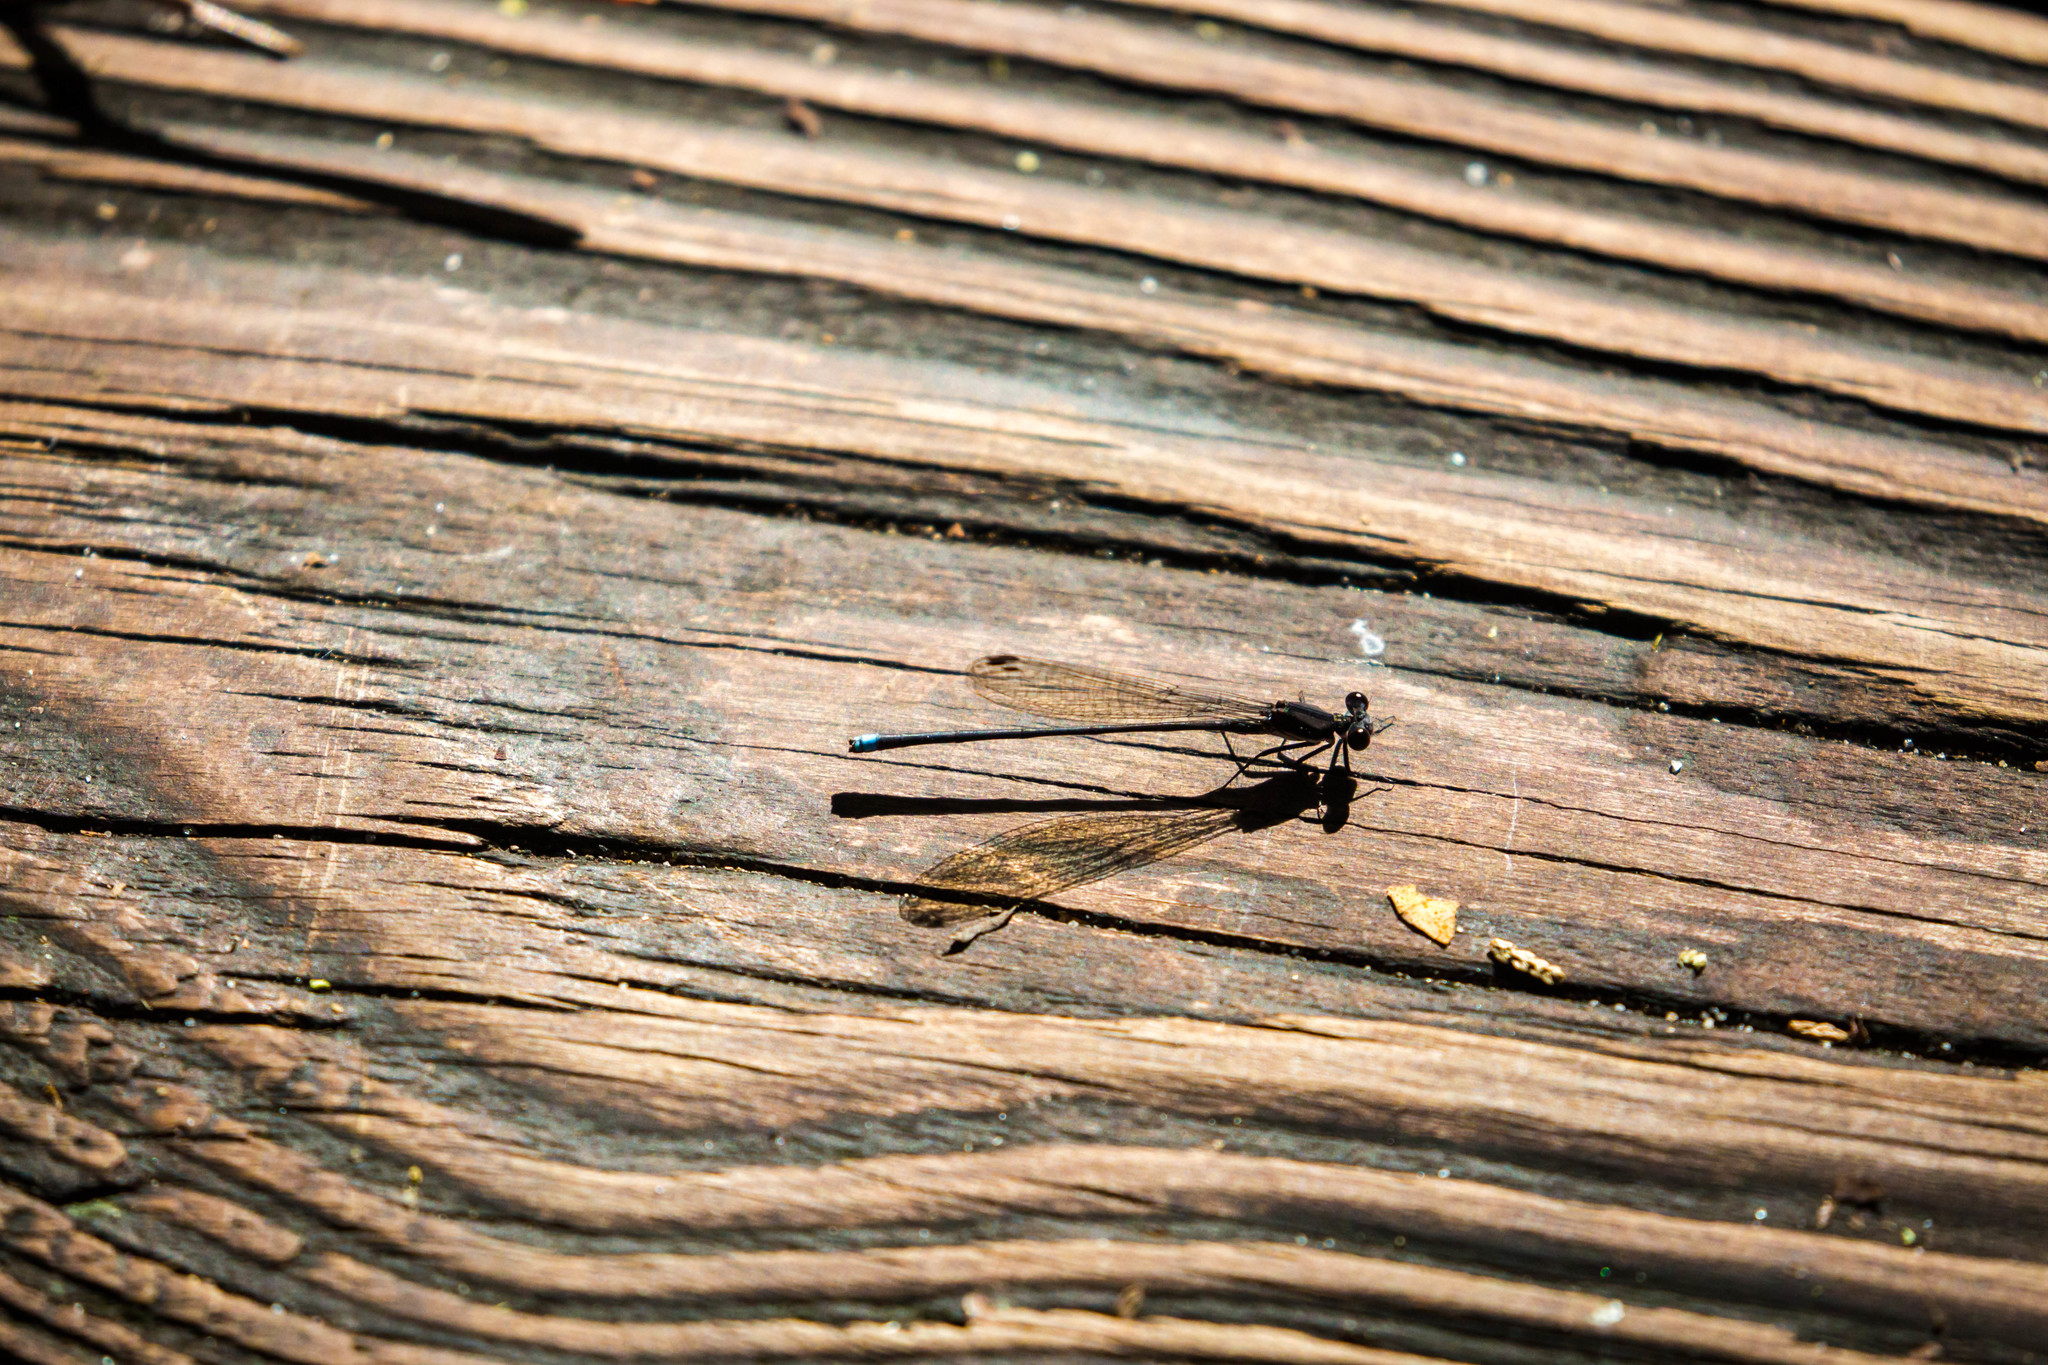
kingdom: Animalia
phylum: Arthropoda
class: Insecta
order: Odonata
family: Coenagrionidae
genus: Argia
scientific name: Argia tibialis
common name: Blue-tipped dancer
